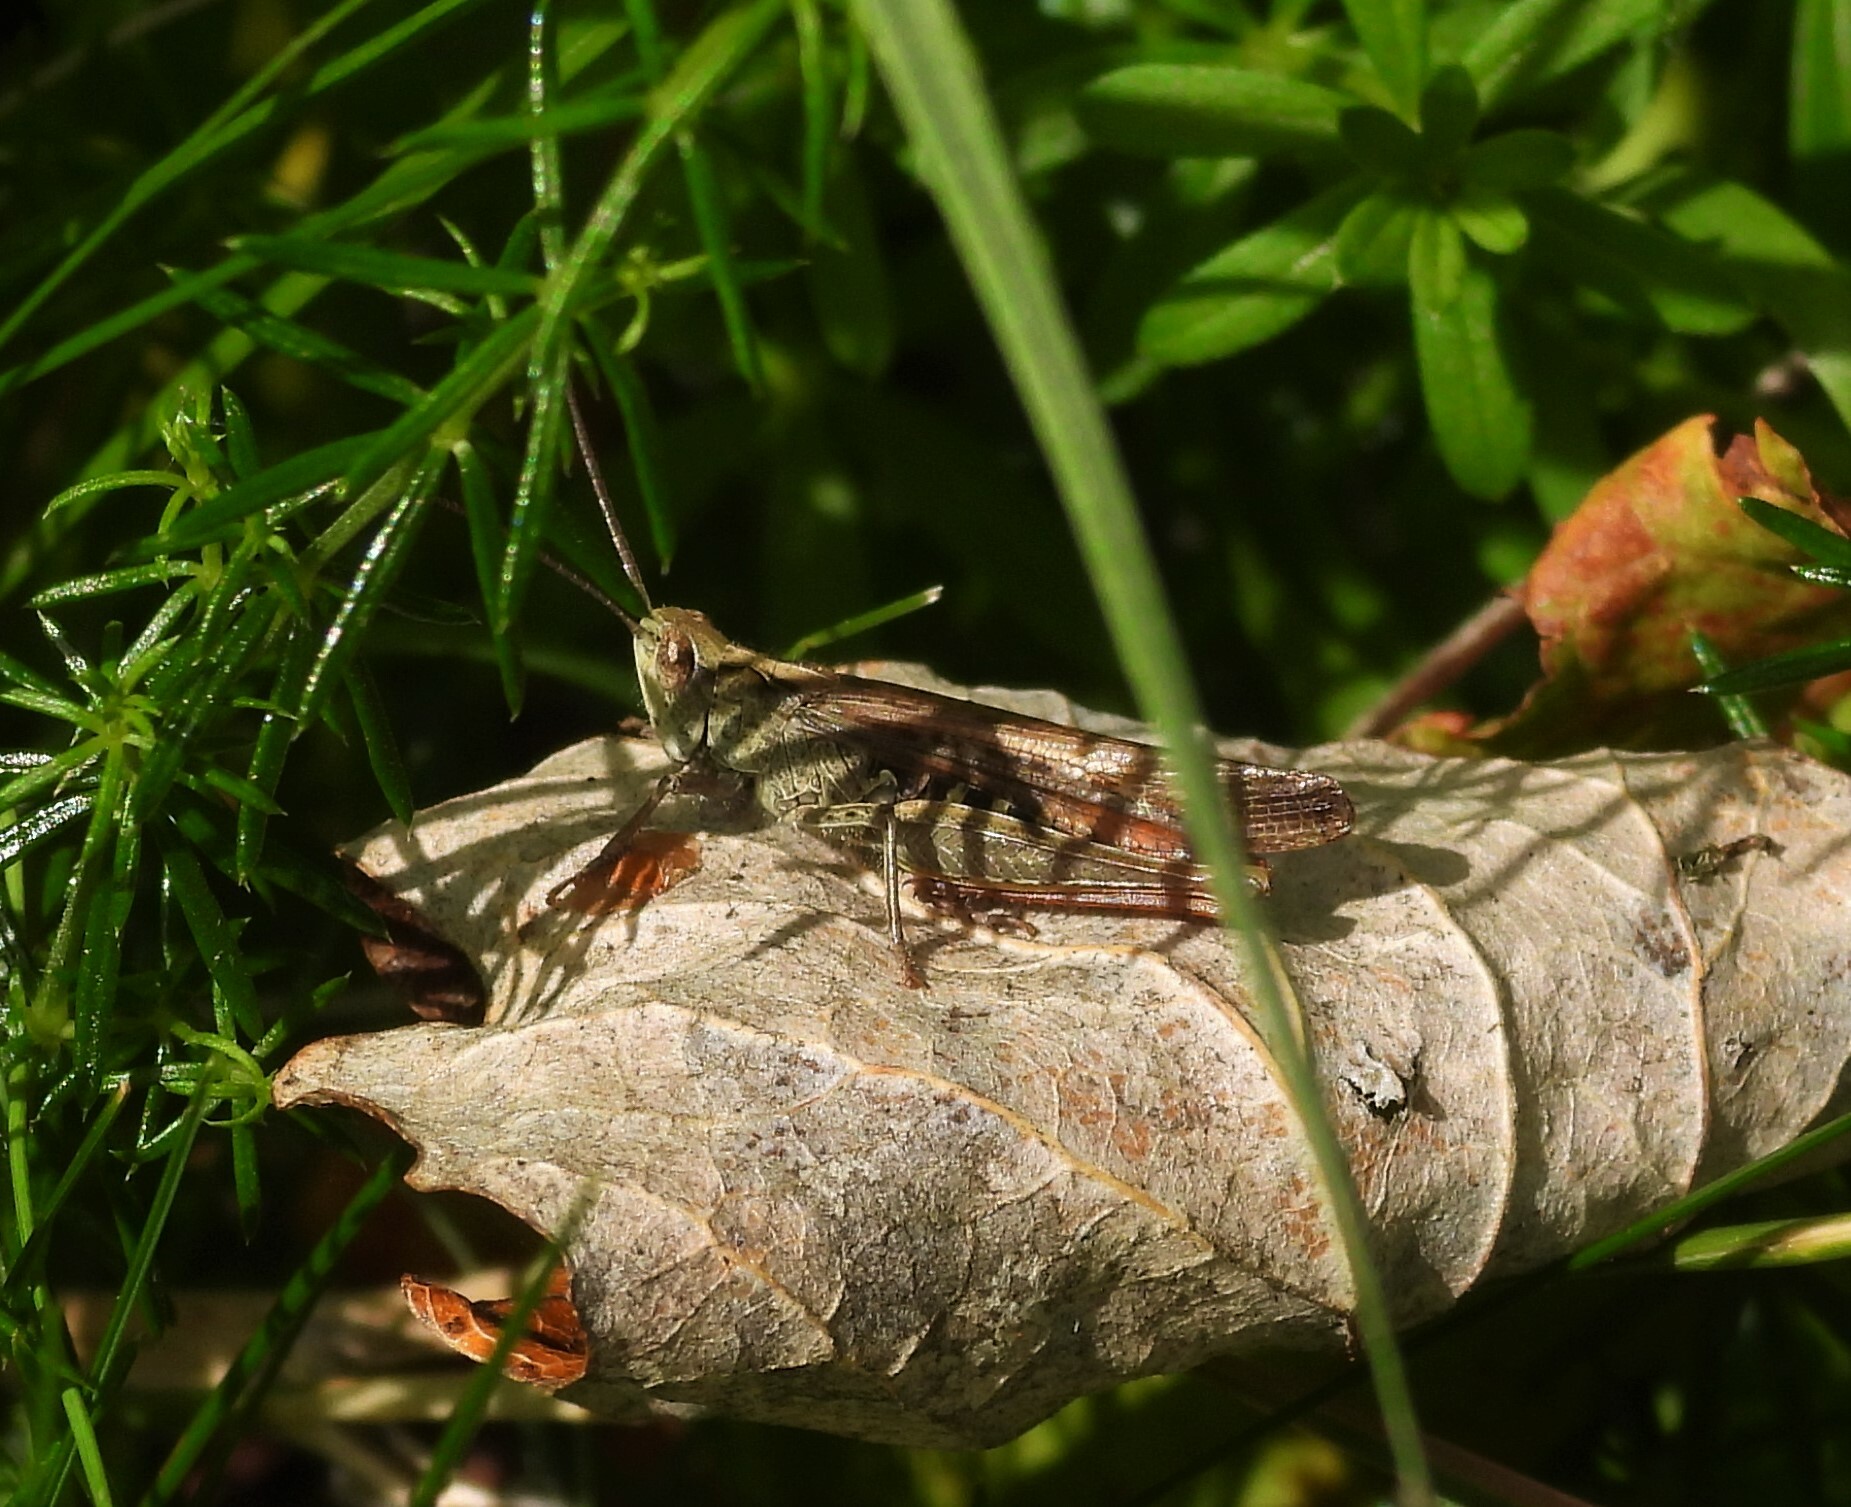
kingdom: Animalia
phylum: Arthropoda
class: Insecta
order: Orthoptera
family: Acrididae
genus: Chorthippus
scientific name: Chorthippus brunneus
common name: Field grasshopper
